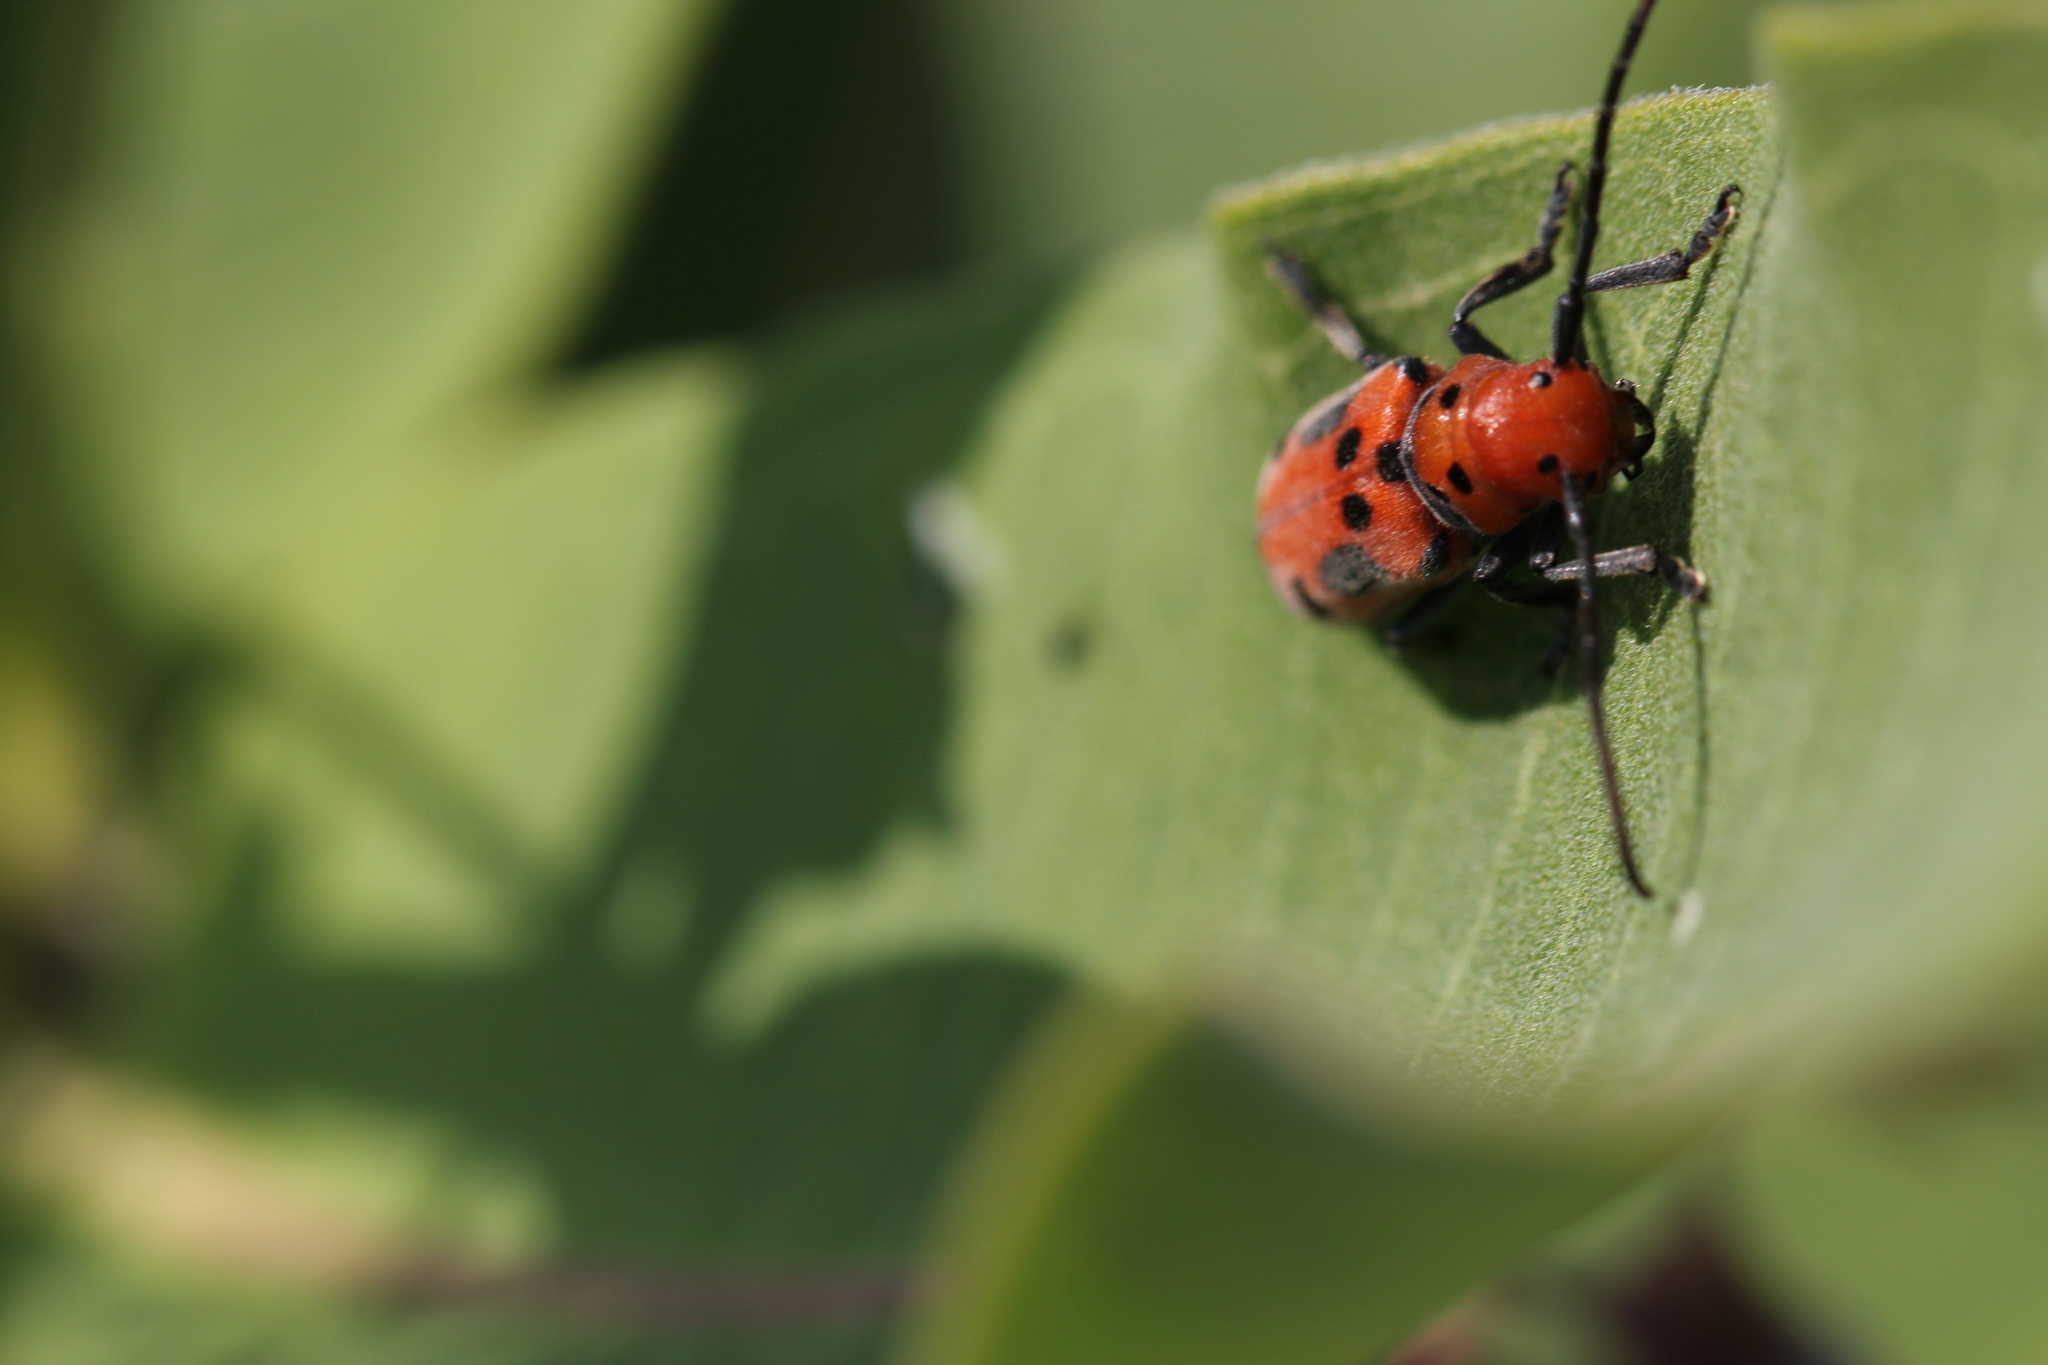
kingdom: Animalia
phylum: Arthropoda
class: Insecta
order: Coleoptera
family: Cerambycidae
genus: Tetraopes
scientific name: Tetraopes tetrophthalmus
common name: Red milkweed beetle
